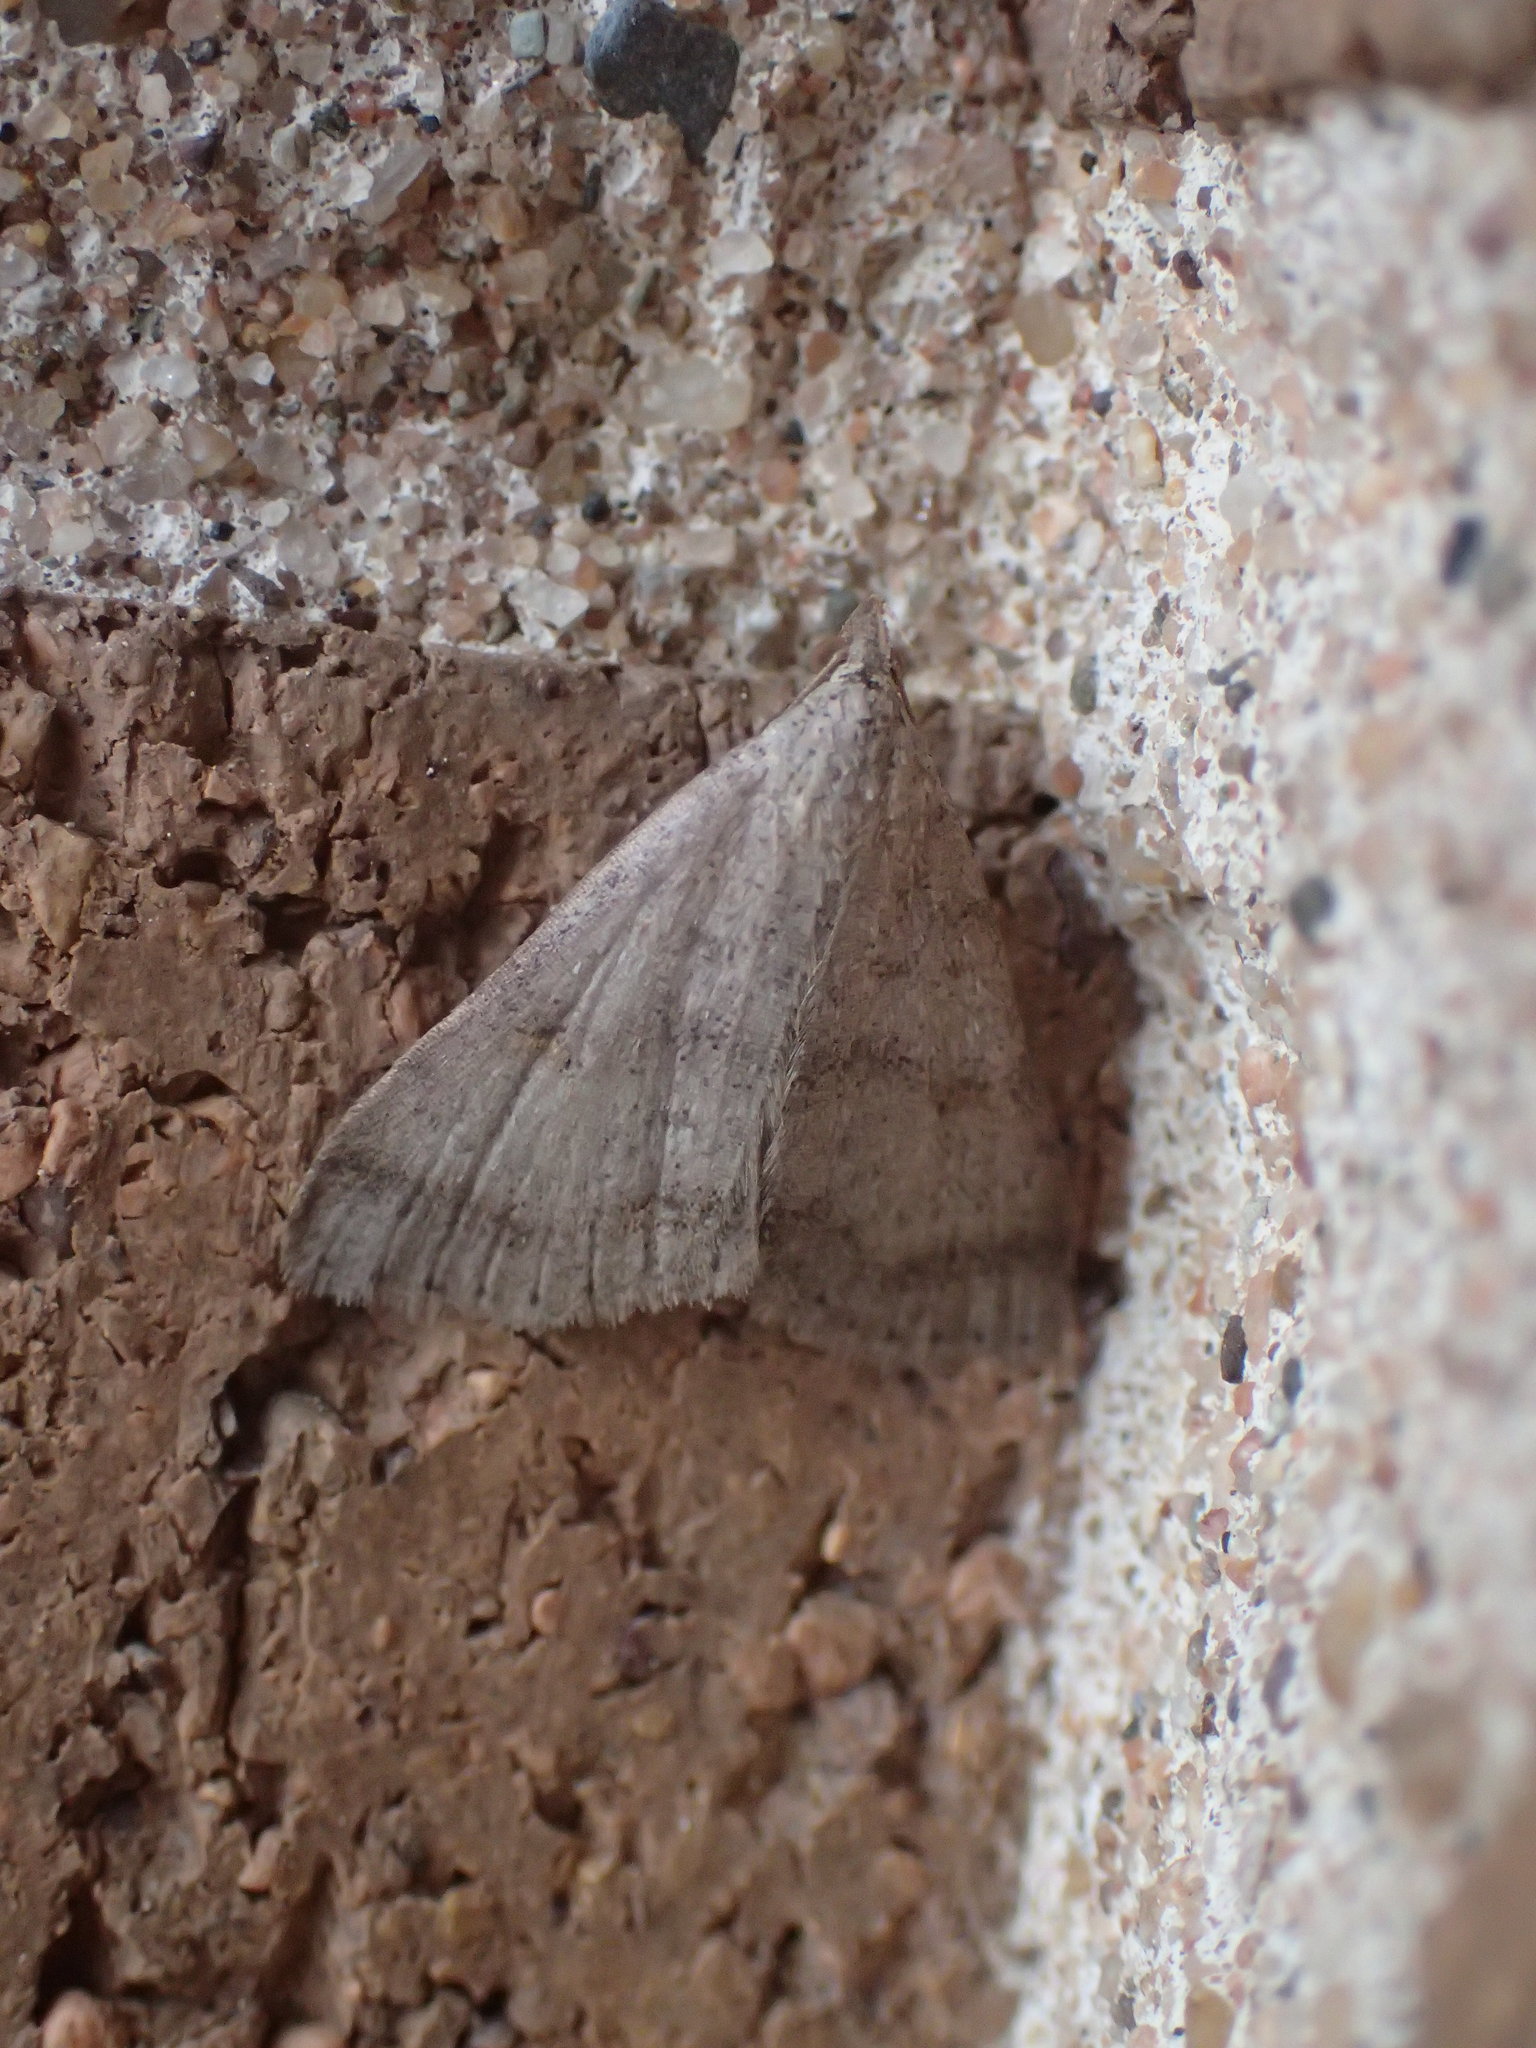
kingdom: Animalia
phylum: Arthropoda
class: Insecta
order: Lepidoptera
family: Erebidae
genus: Bleptina
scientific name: Bleptina caradrinalis
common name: Bent-winged owlet
